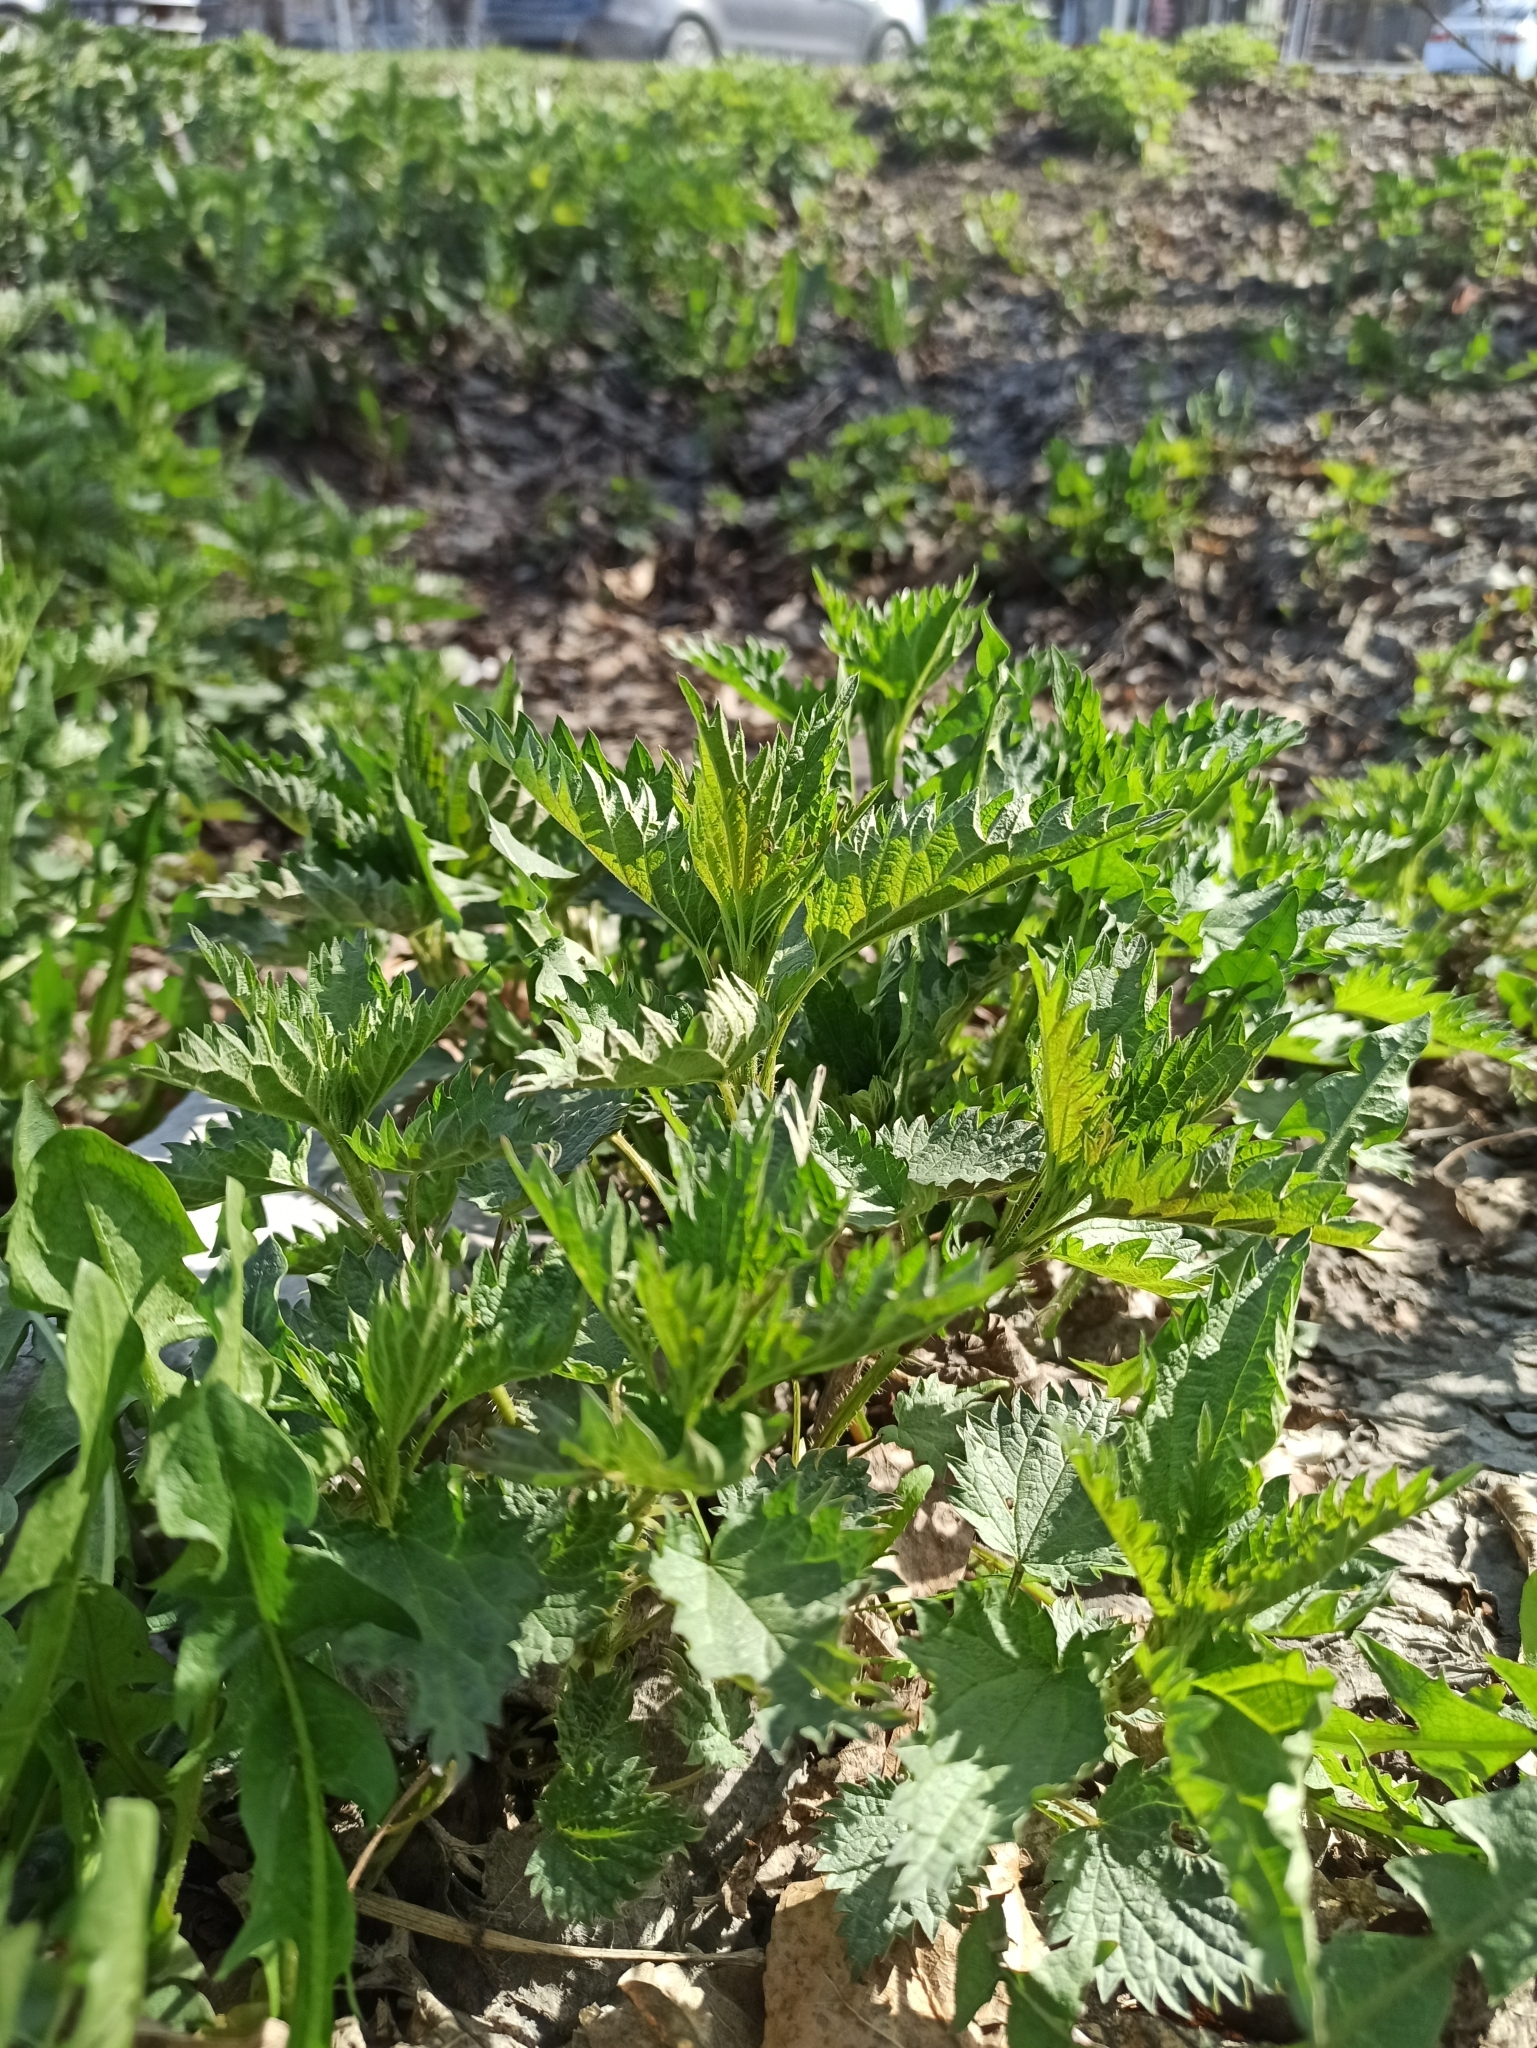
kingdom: Plantae
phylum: Tracheophyta
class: Magnoliopsida
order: Rosales
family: Urticaceae
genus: Urtica
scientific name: Urtica dioica
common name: Common nettle
